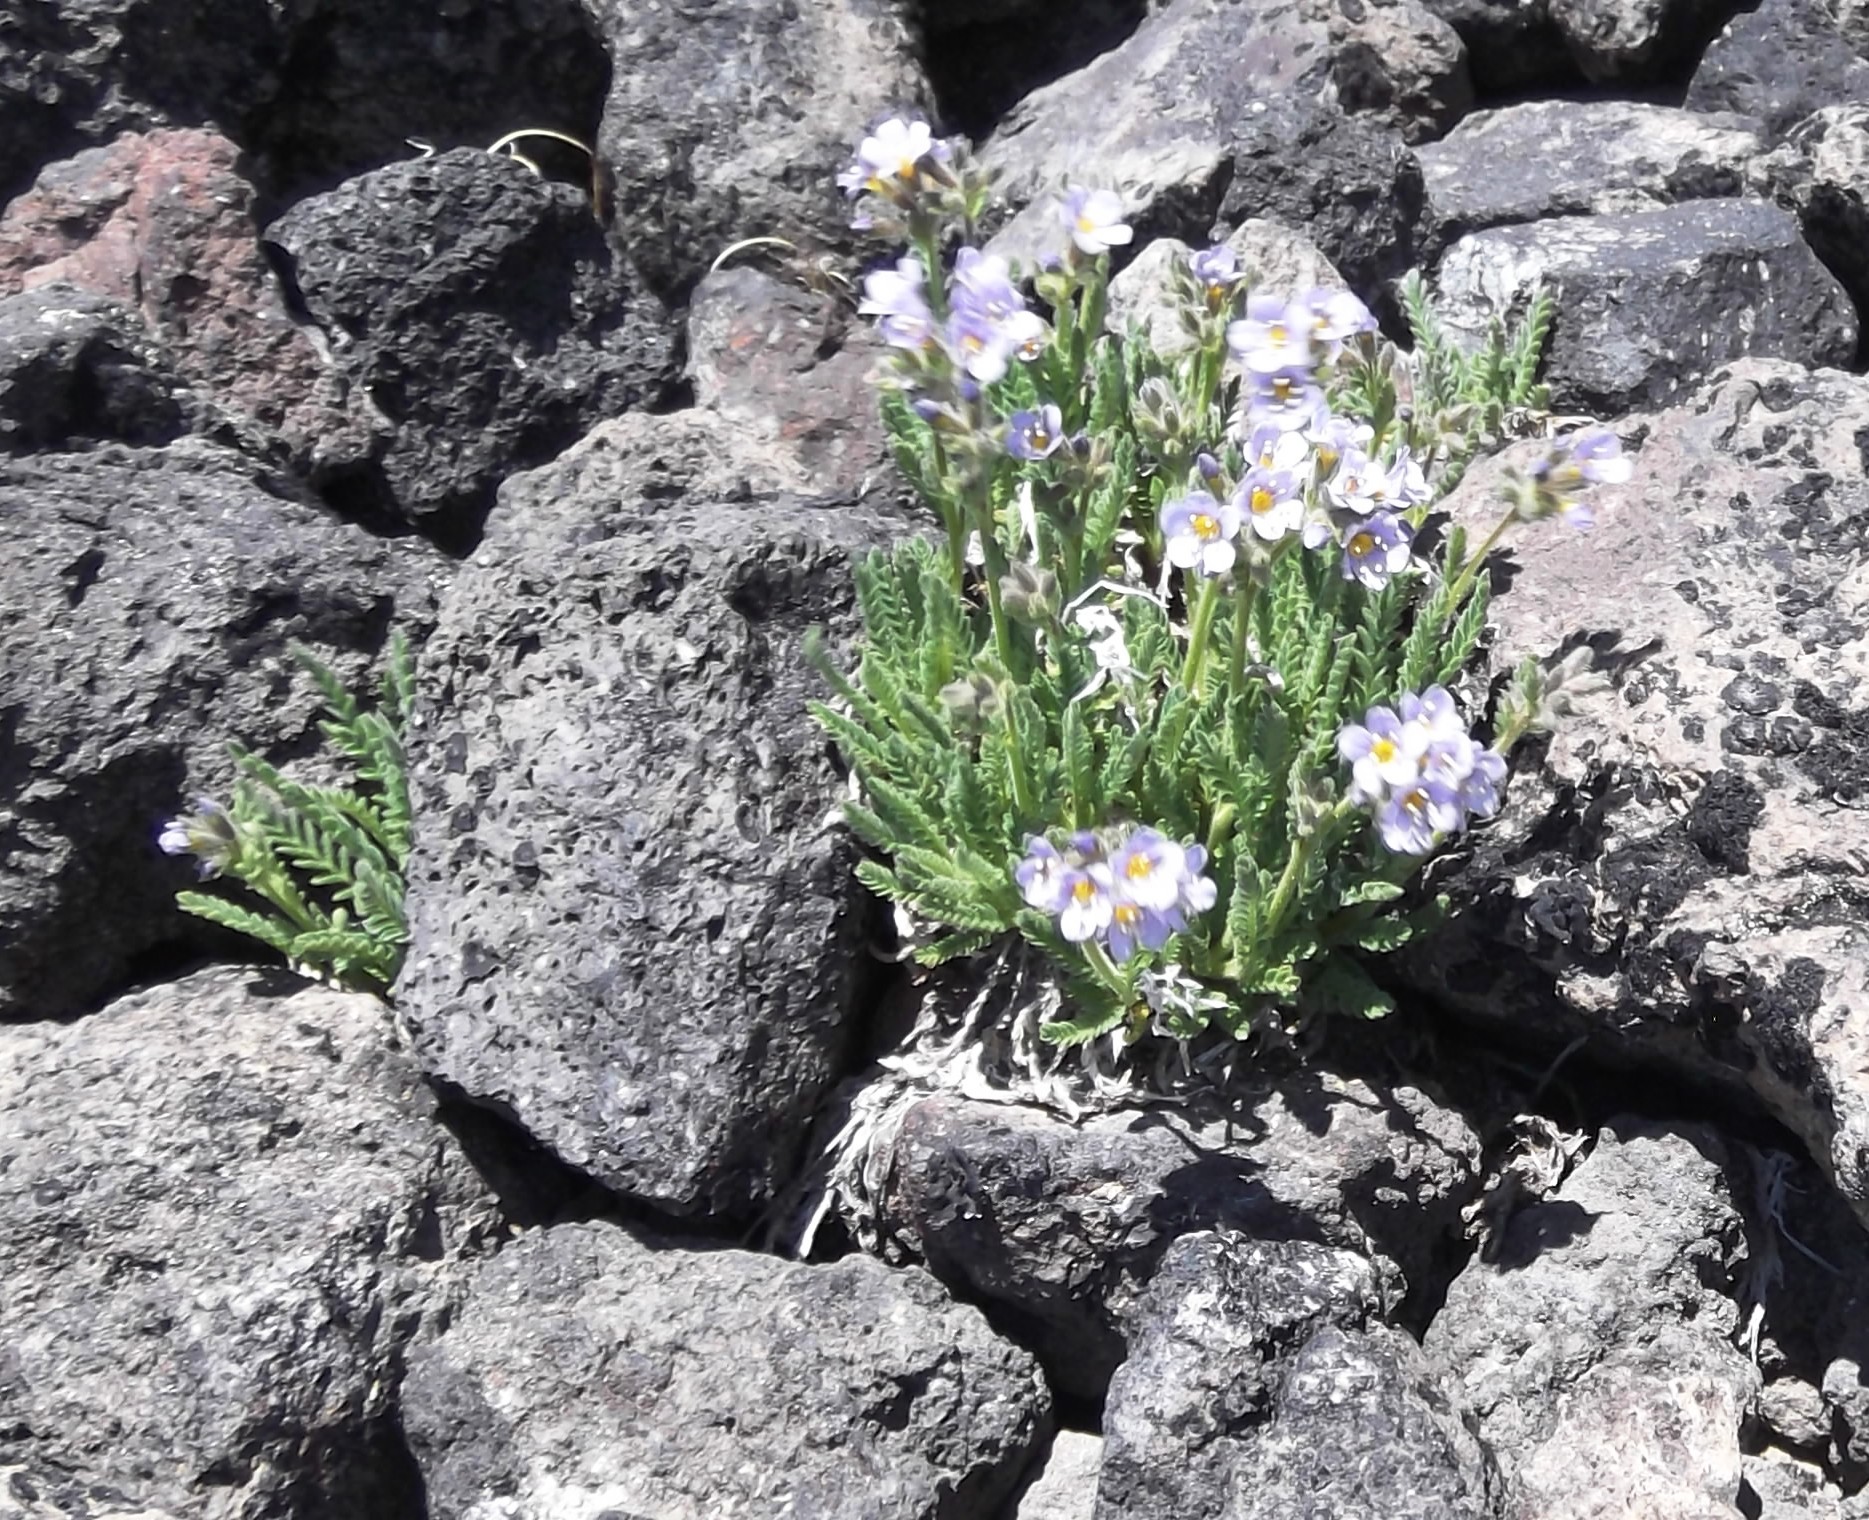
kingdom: Plantae
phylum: Tracheophyta
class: Magnoliopsida
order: Ericales
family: Polemoniaceae
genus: Polemonium
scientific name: Polemonium elegans
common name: Elegant jacob's-ladder
